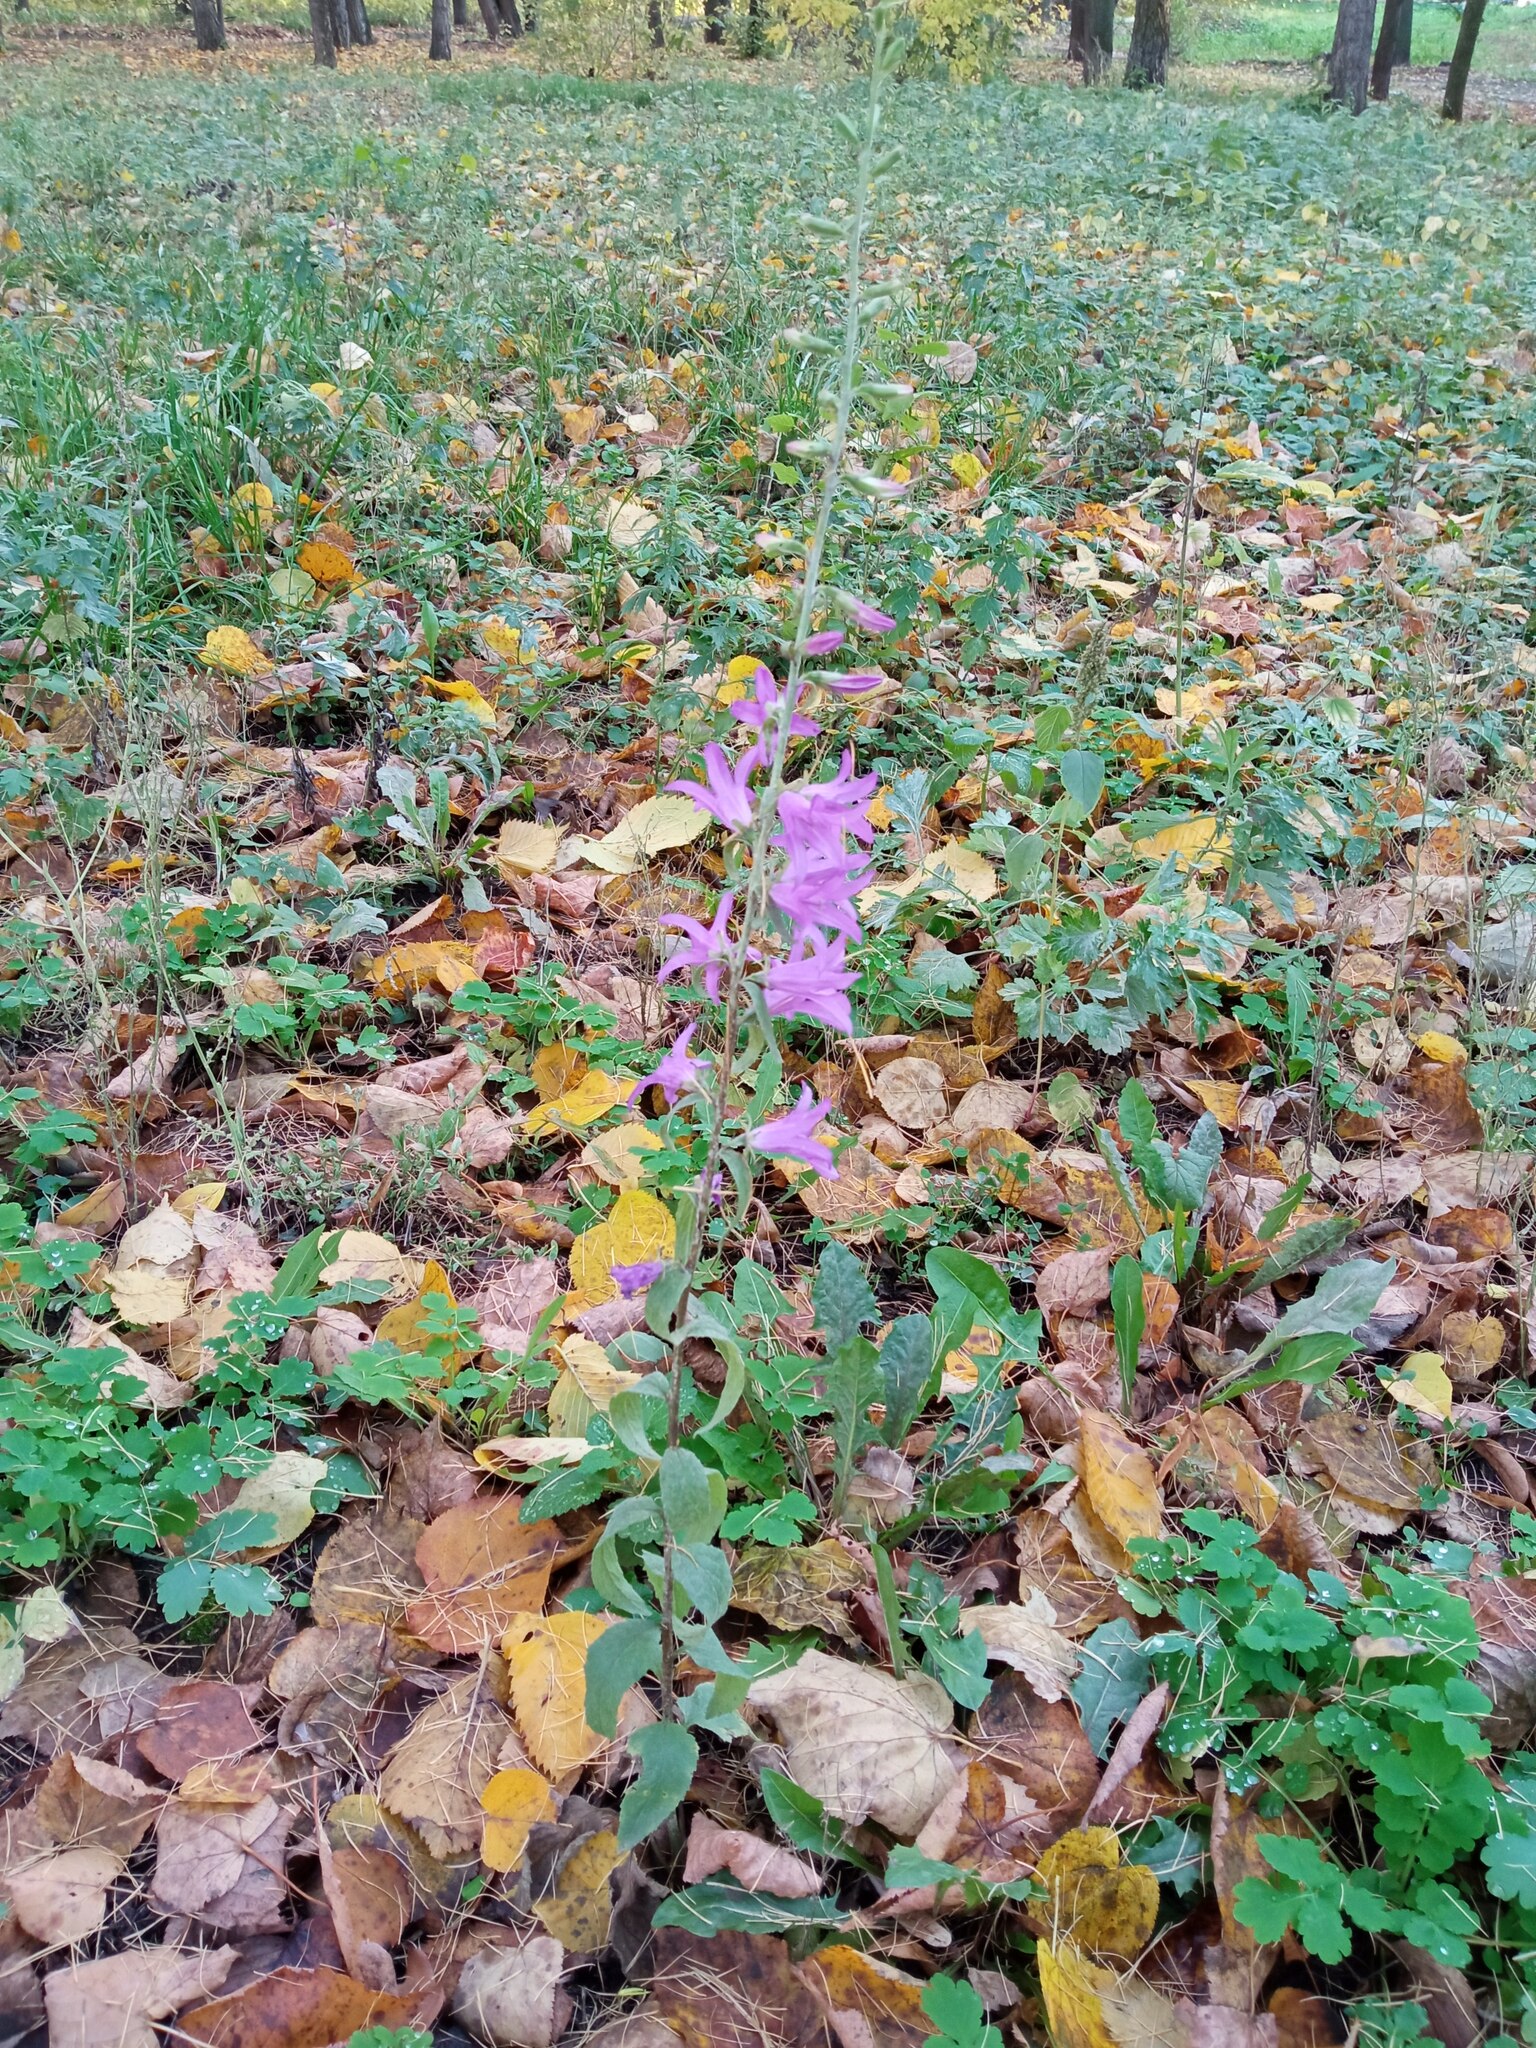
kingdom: Plantae
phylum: Tracheophyta
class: Magnoliopsida
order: Asterales
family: Campanulaceae
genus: Campanula
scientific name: Campanula rapunculoides
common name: Creeping bellflower
